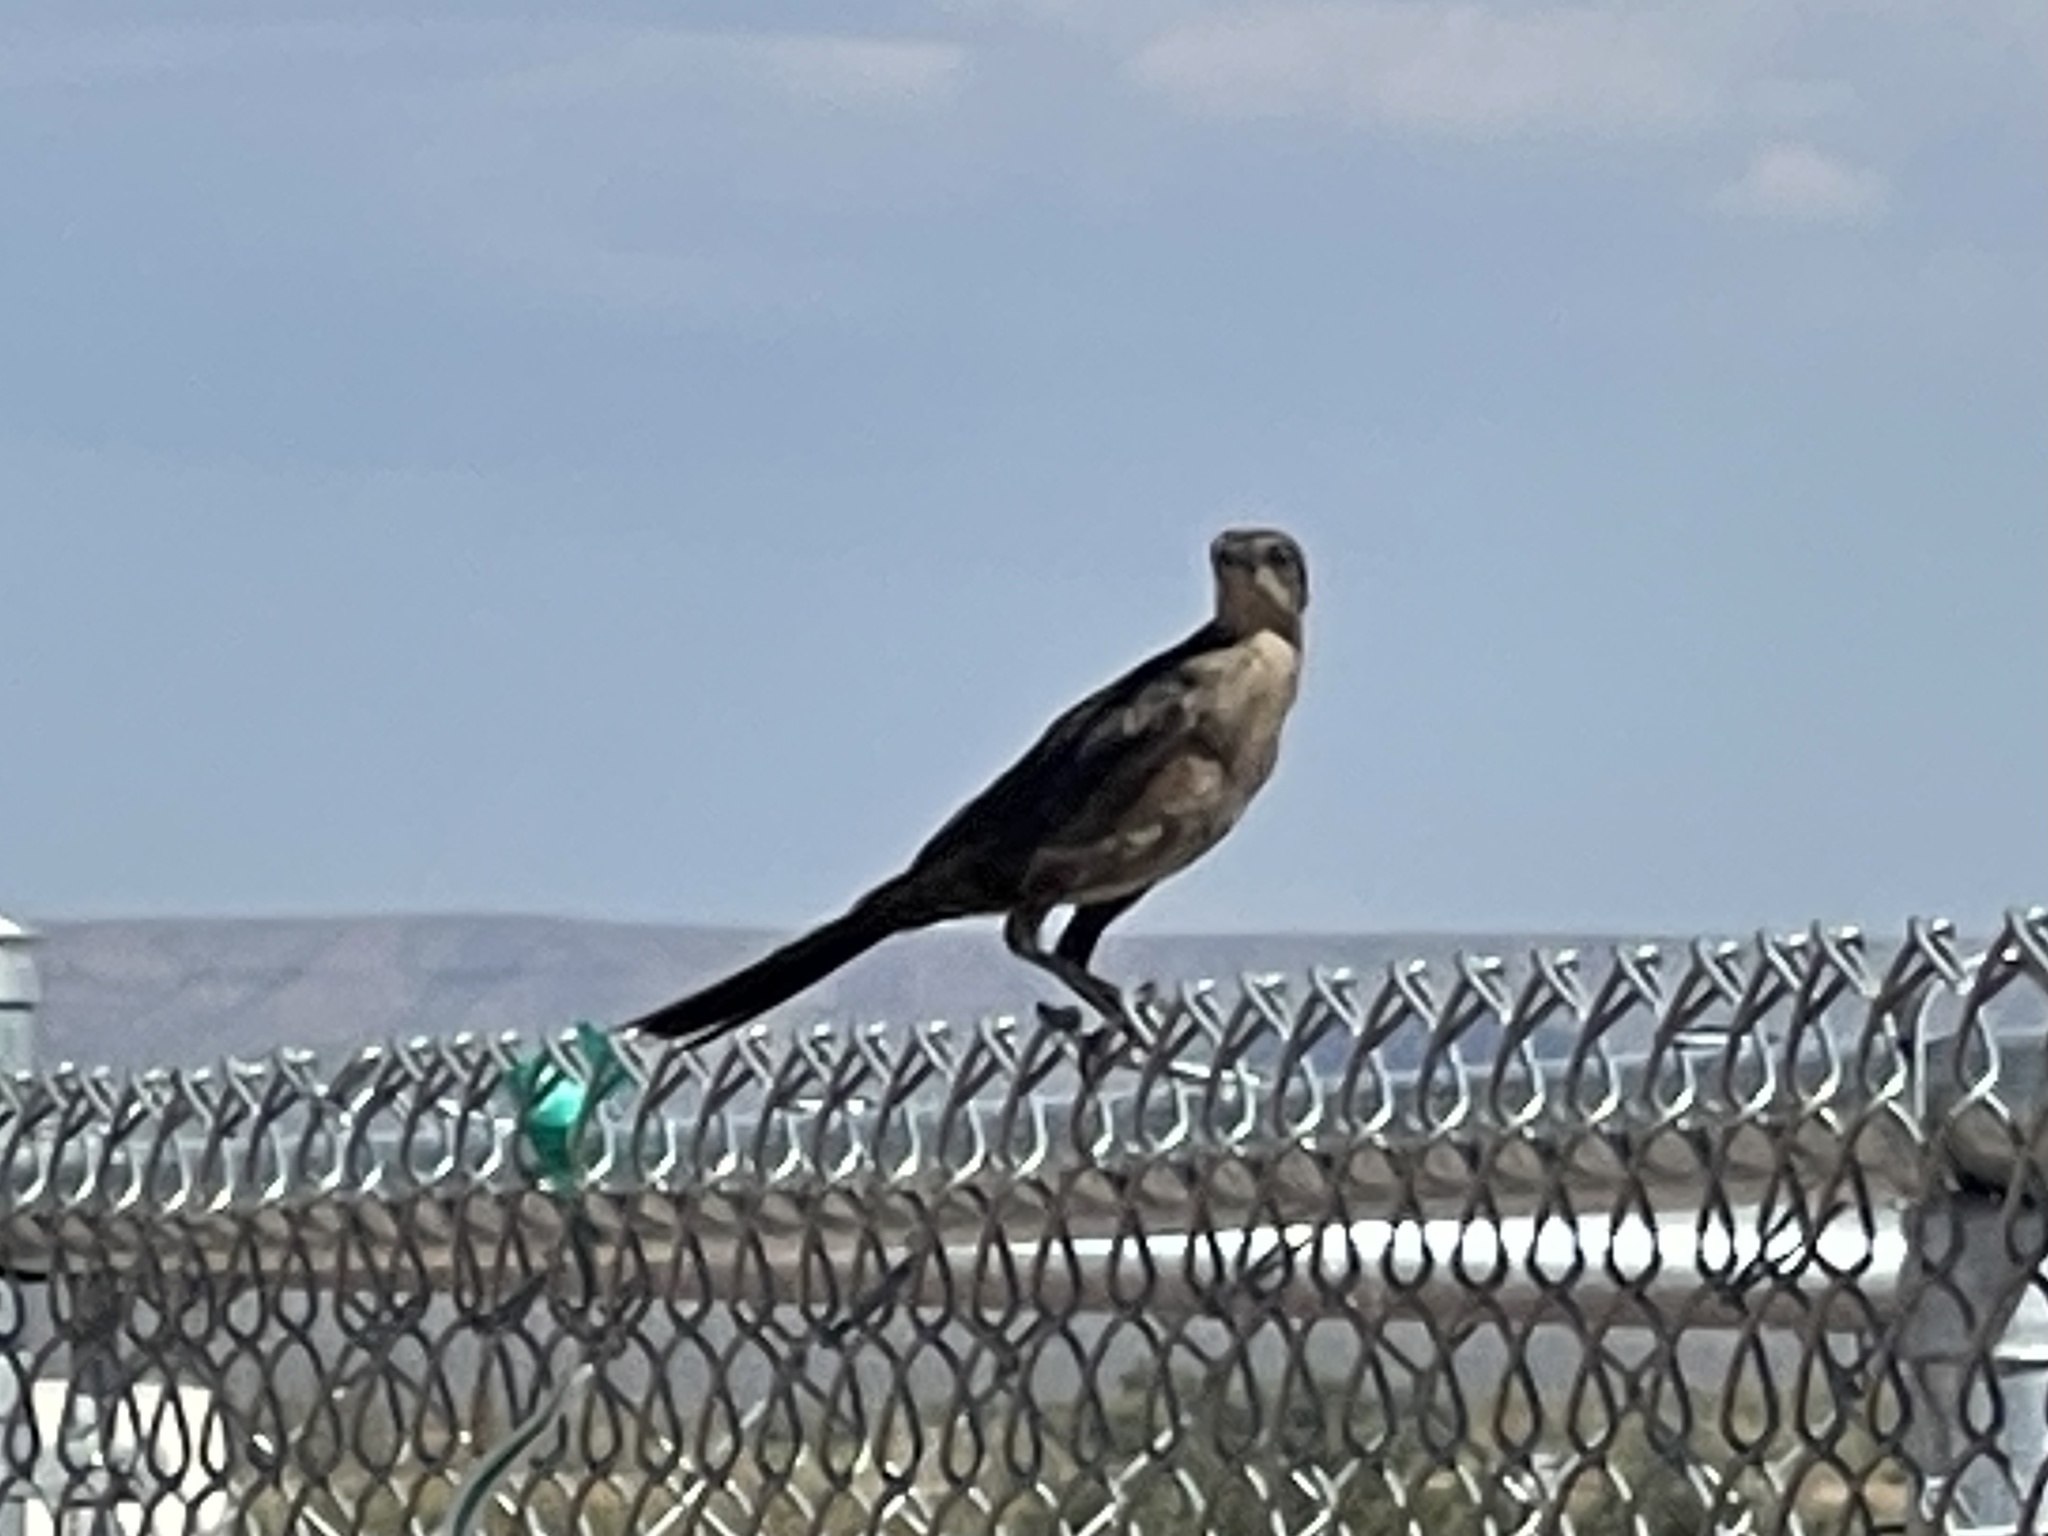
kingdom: Animalia
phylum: Chordata
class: Aves
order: Passeriformes
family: Icteridae
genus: Quiscalus
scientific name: Quiscalus mexicanus
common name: Great-tailed grackle
